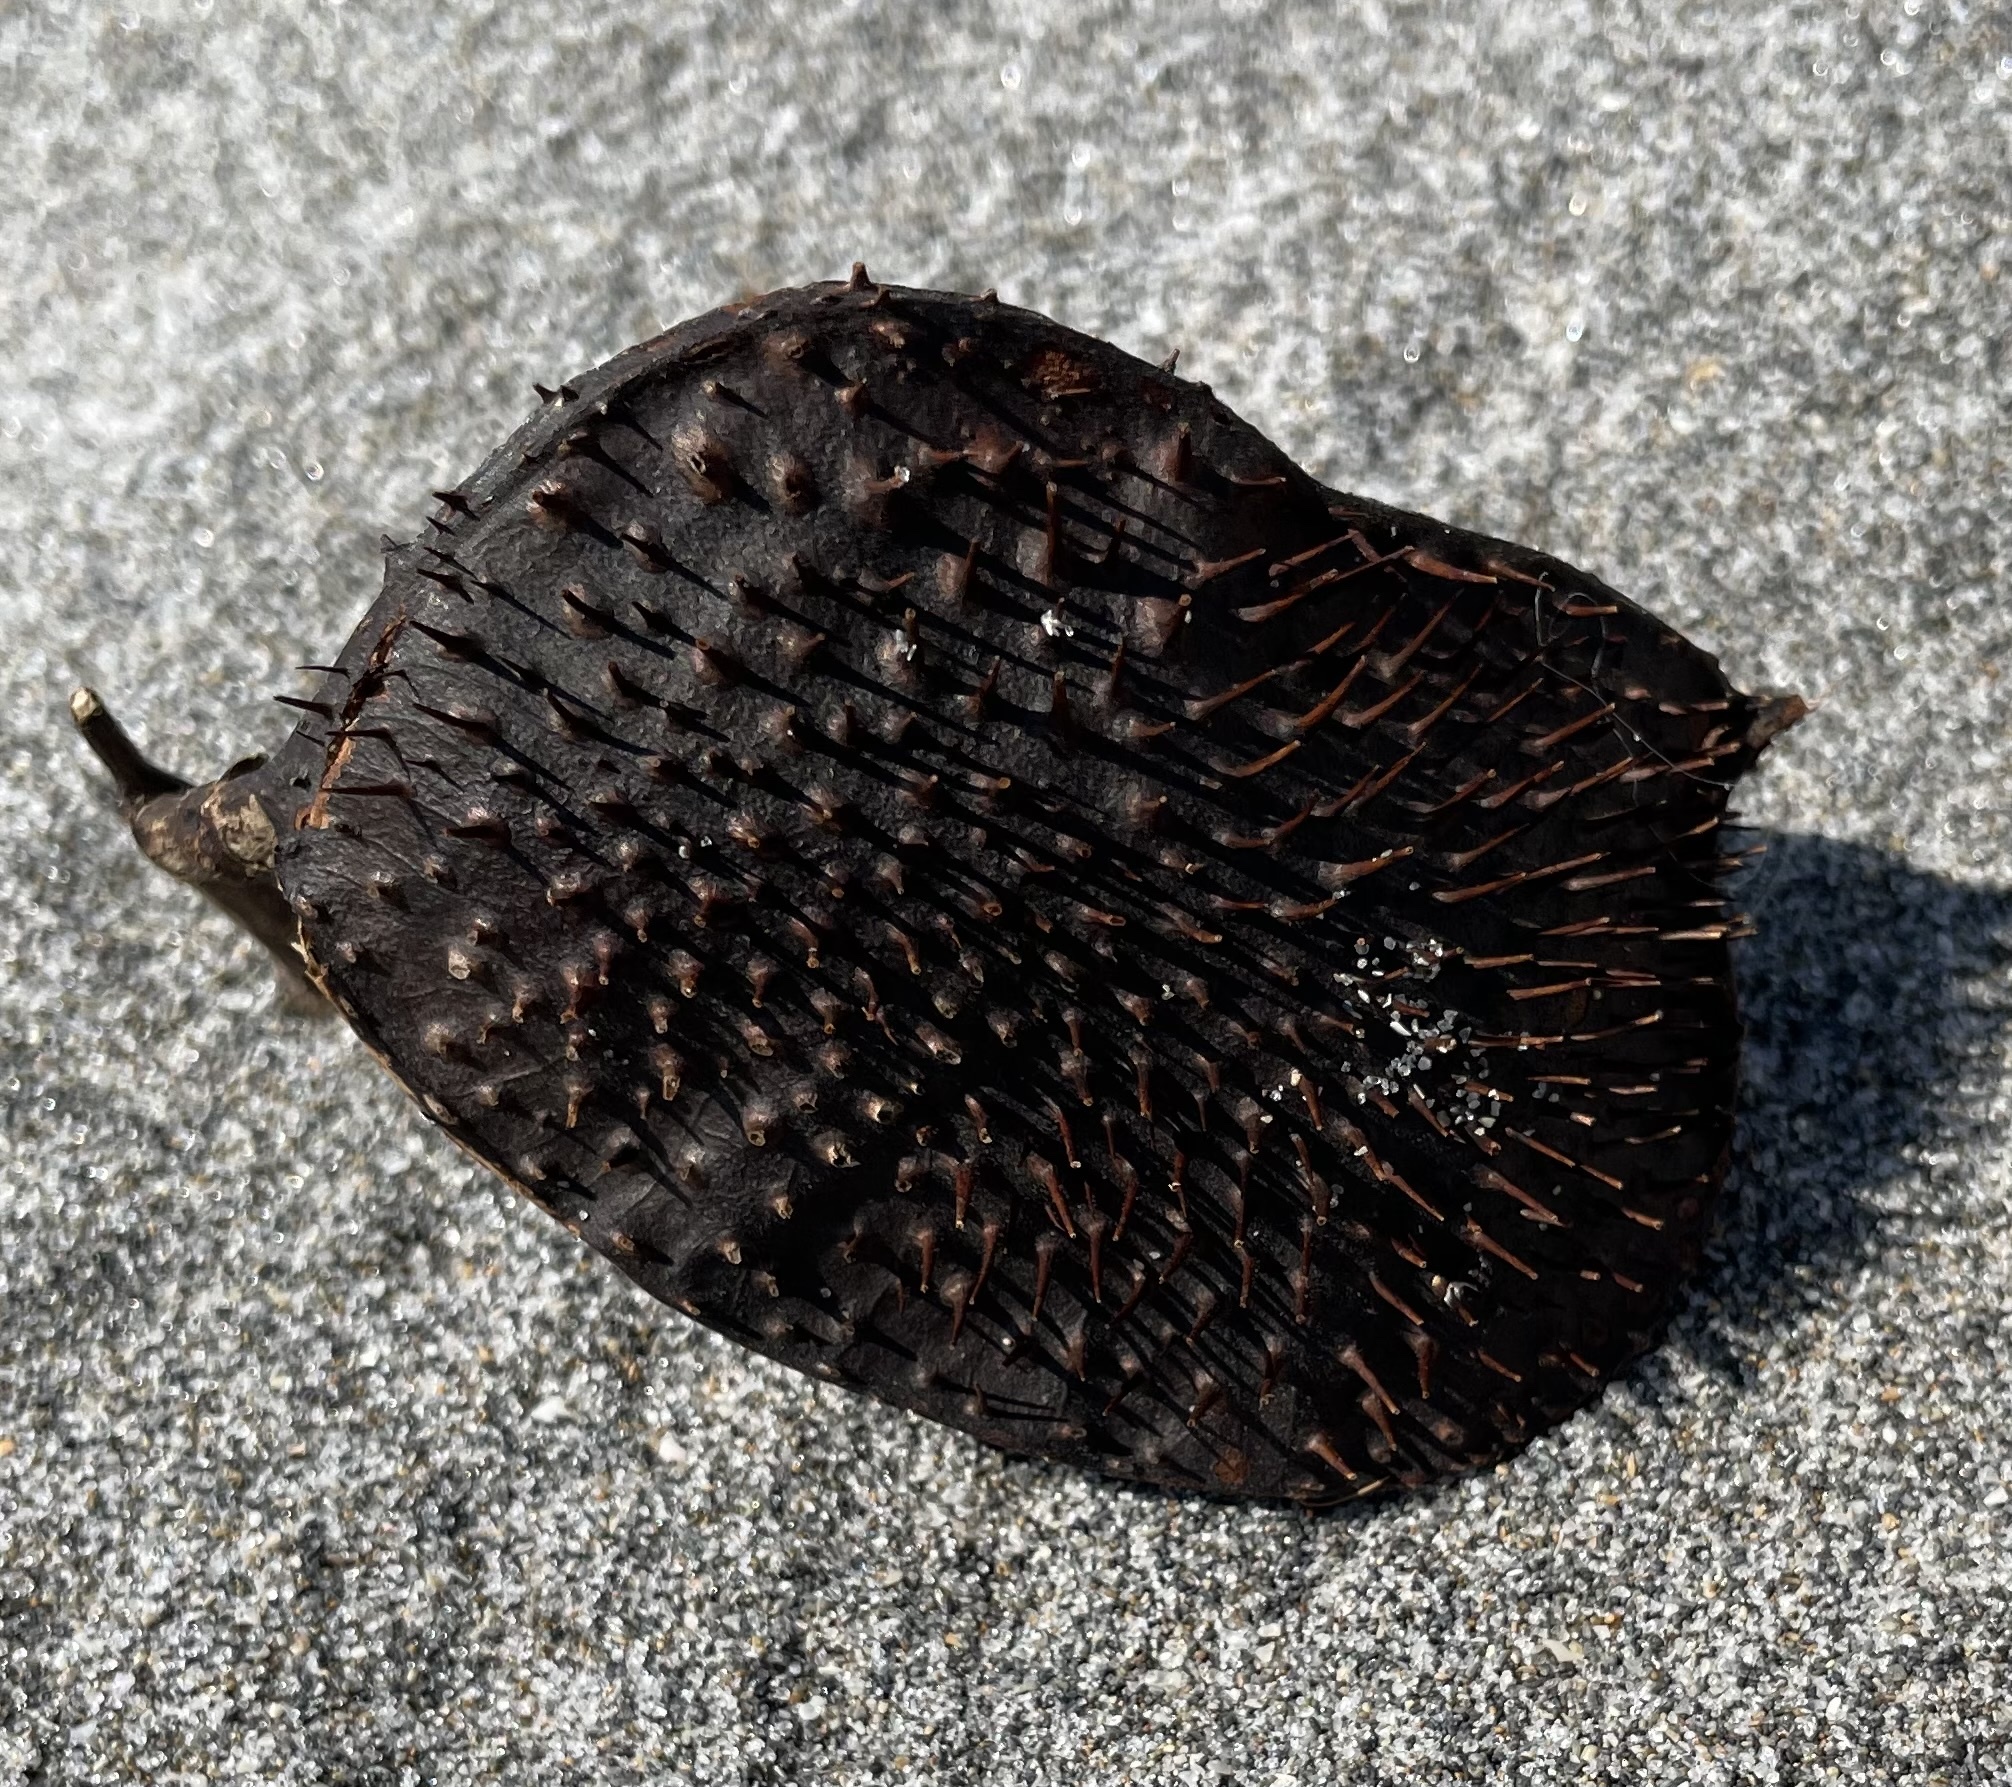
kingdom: Plantae
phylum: Tracheophyta
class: Magnoliopsida
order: Fabales
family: Fabaceae
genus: Guilandina
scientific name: Guilandina bonduc
